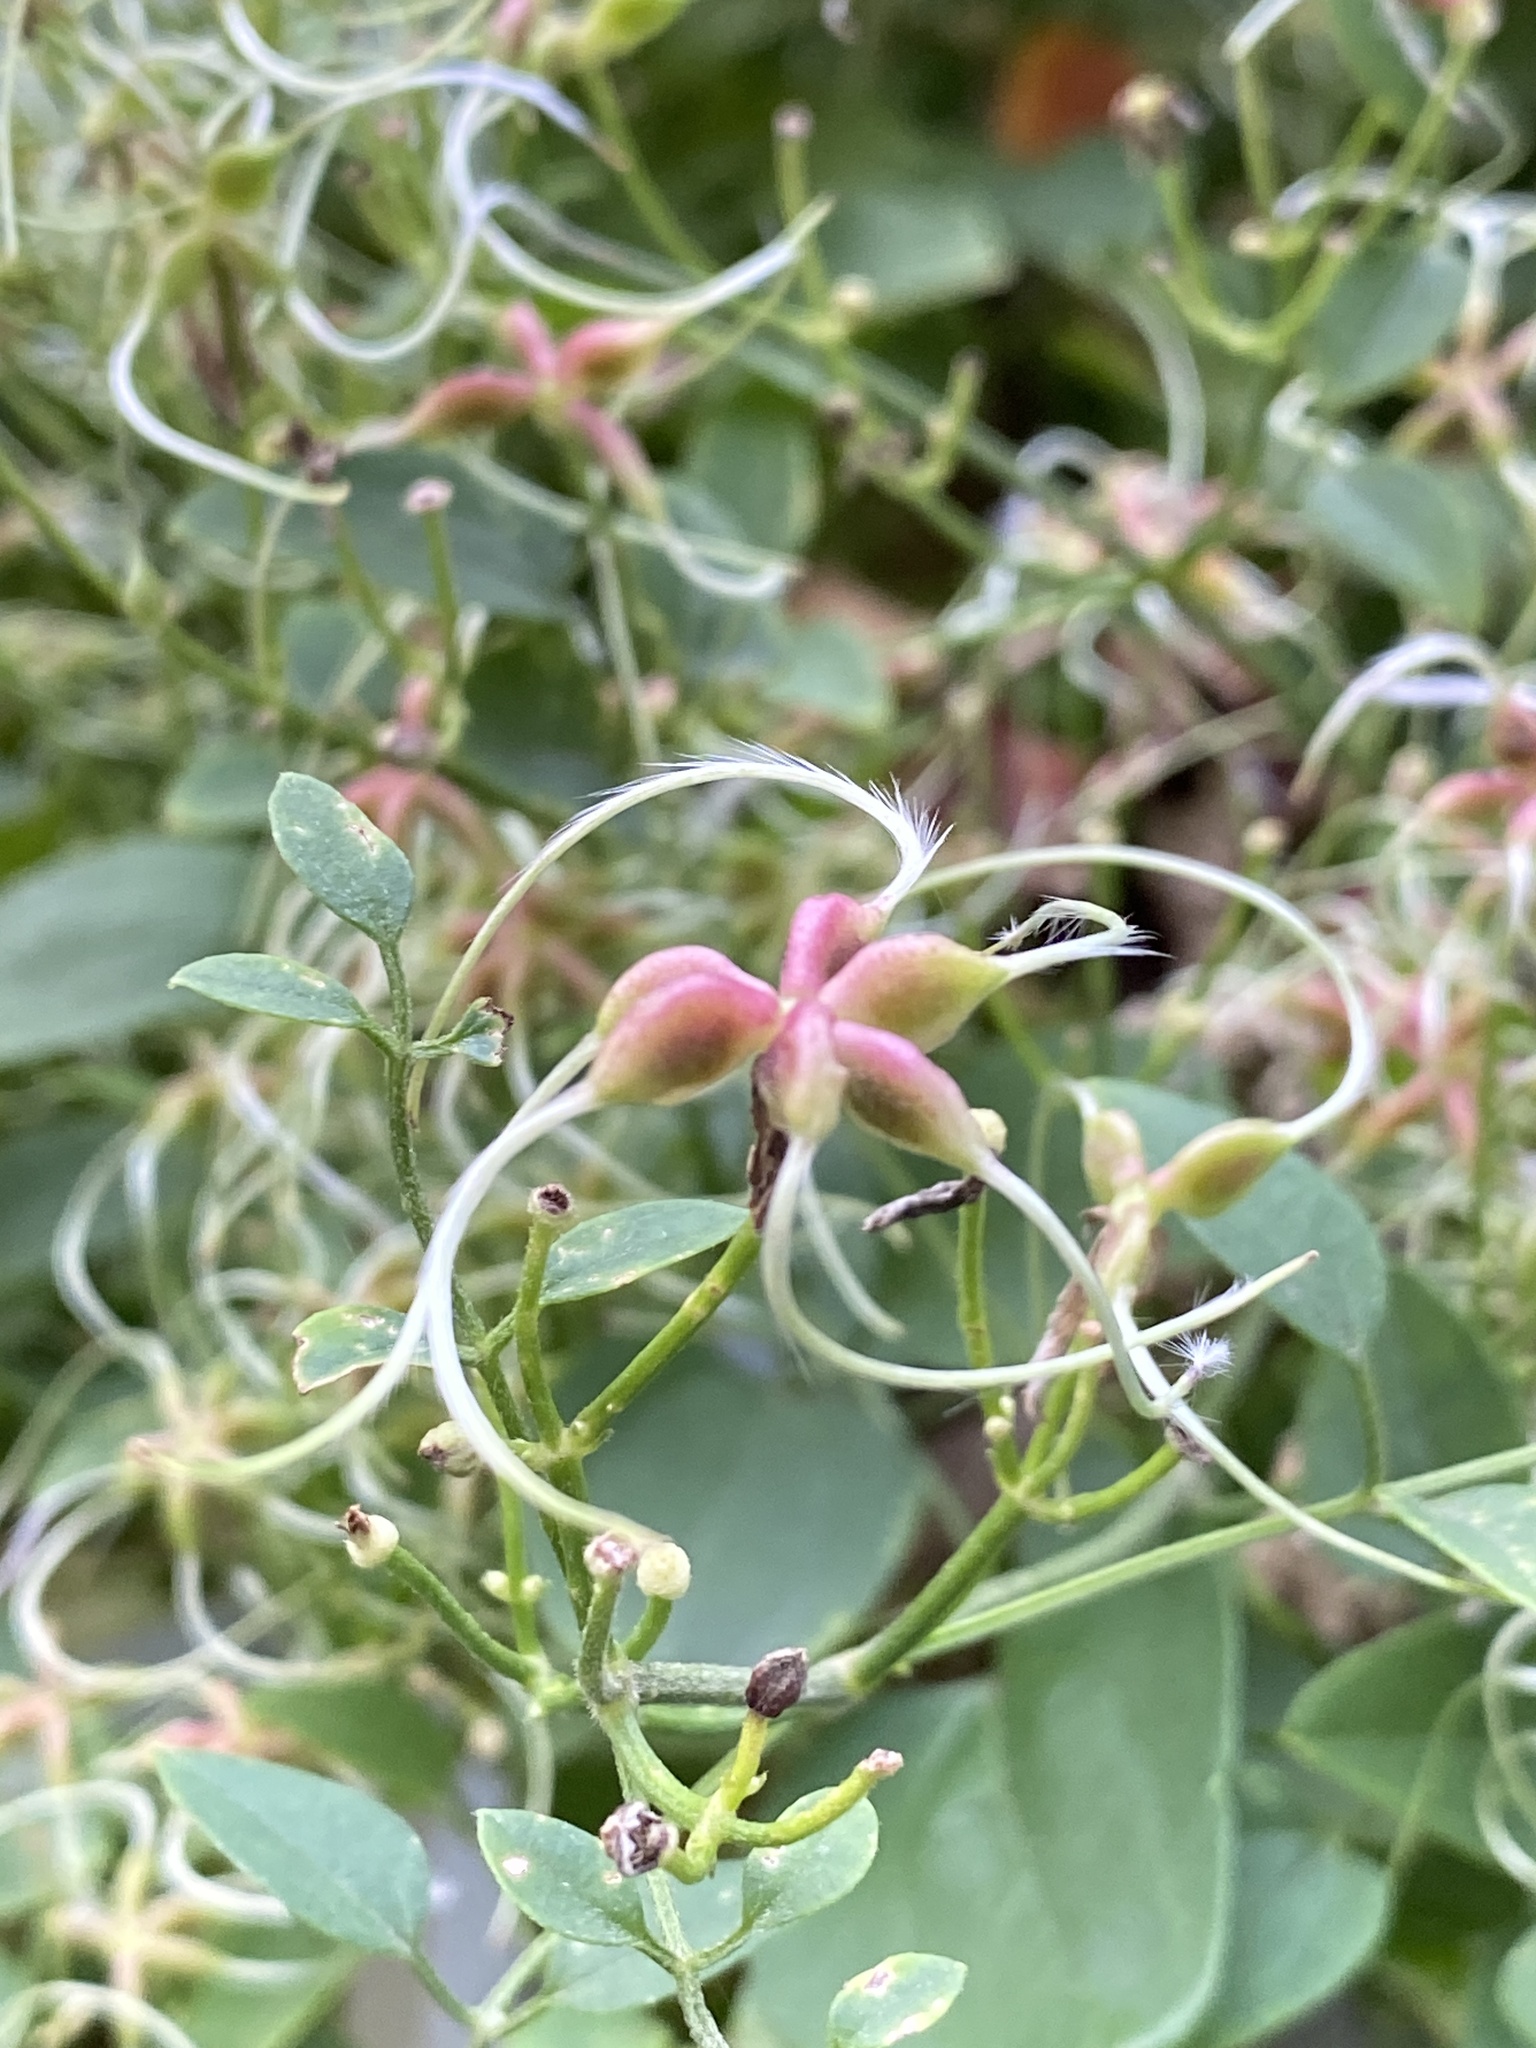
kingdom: Plantae
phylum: Tracheophyta
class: Magnoliopsida
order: Ranunculales
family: Ranunculaceae
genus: Clematis
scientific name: Clematis terniflora
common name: Sweet autumn clematis
